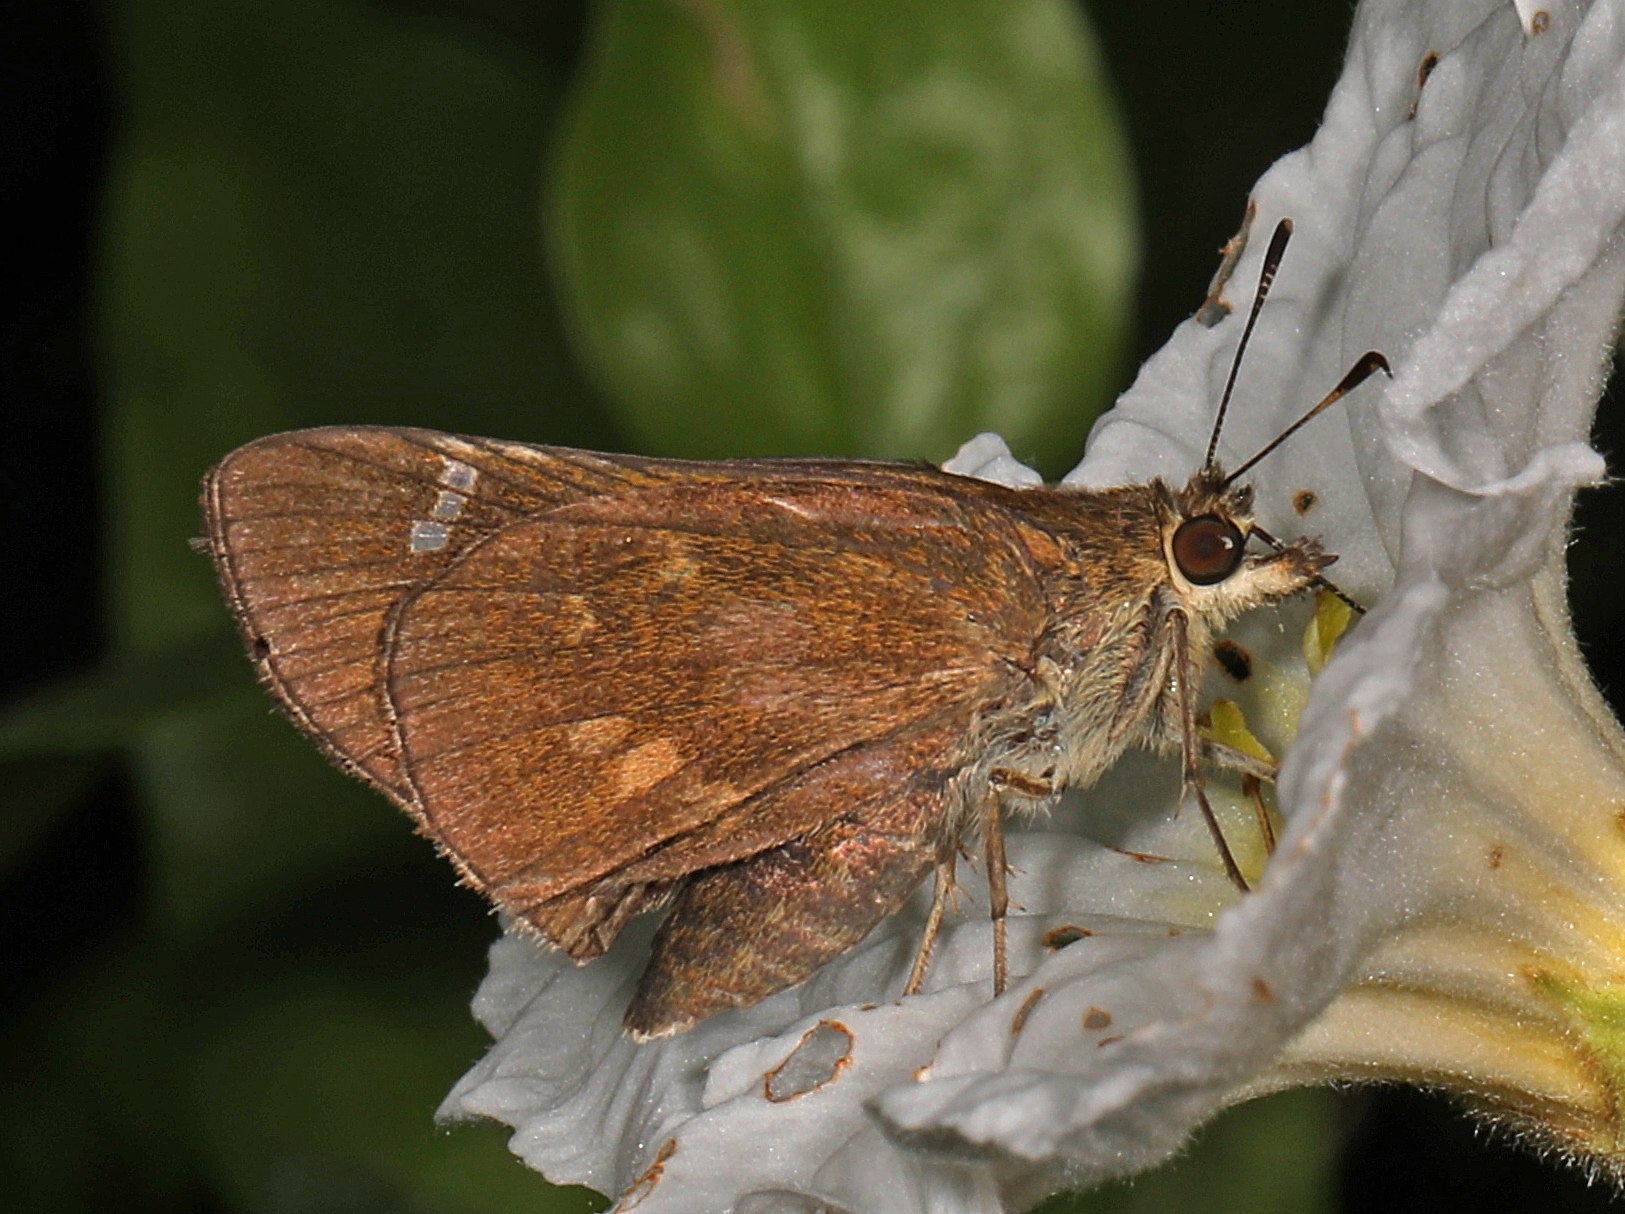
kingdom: Animalia
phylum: Arthropoda
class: Insecta
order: Lepidoptera
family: Hesperiidae
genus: Lerema
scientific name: Lerema accius
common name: Clouded skipper
